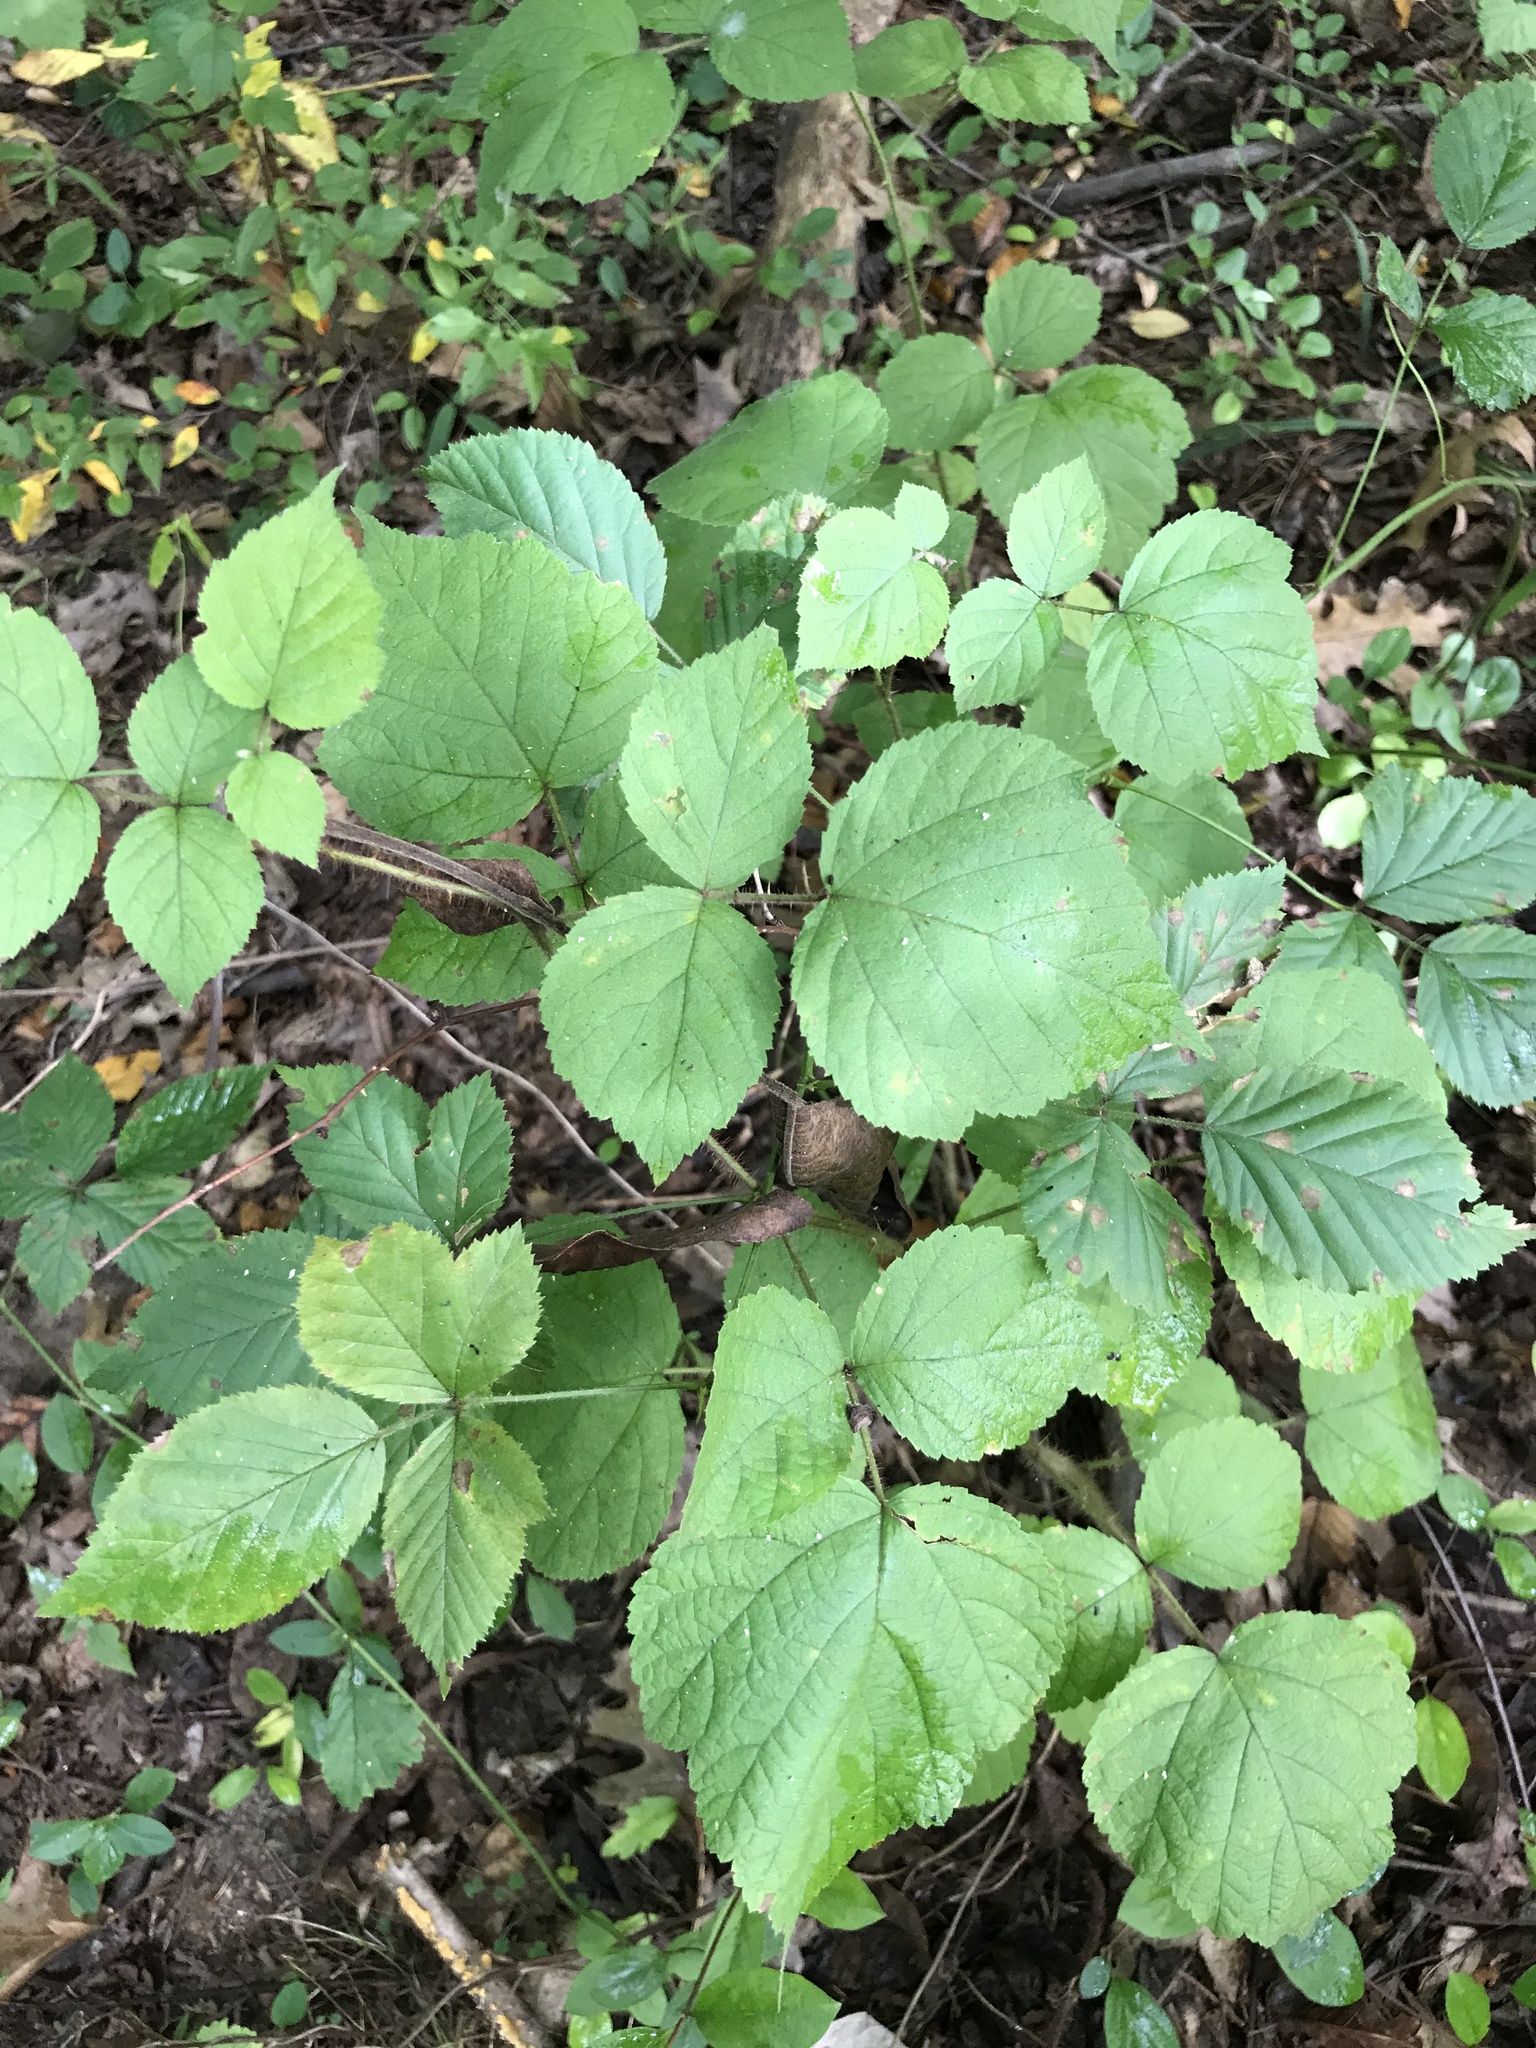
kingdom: Plantae
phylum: Tracheophyta
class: Magnoliopsida
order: Rosales
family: Rosaceae
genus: Rubus
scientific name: Rubus phoenicolasius
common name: Japanese wineberry
